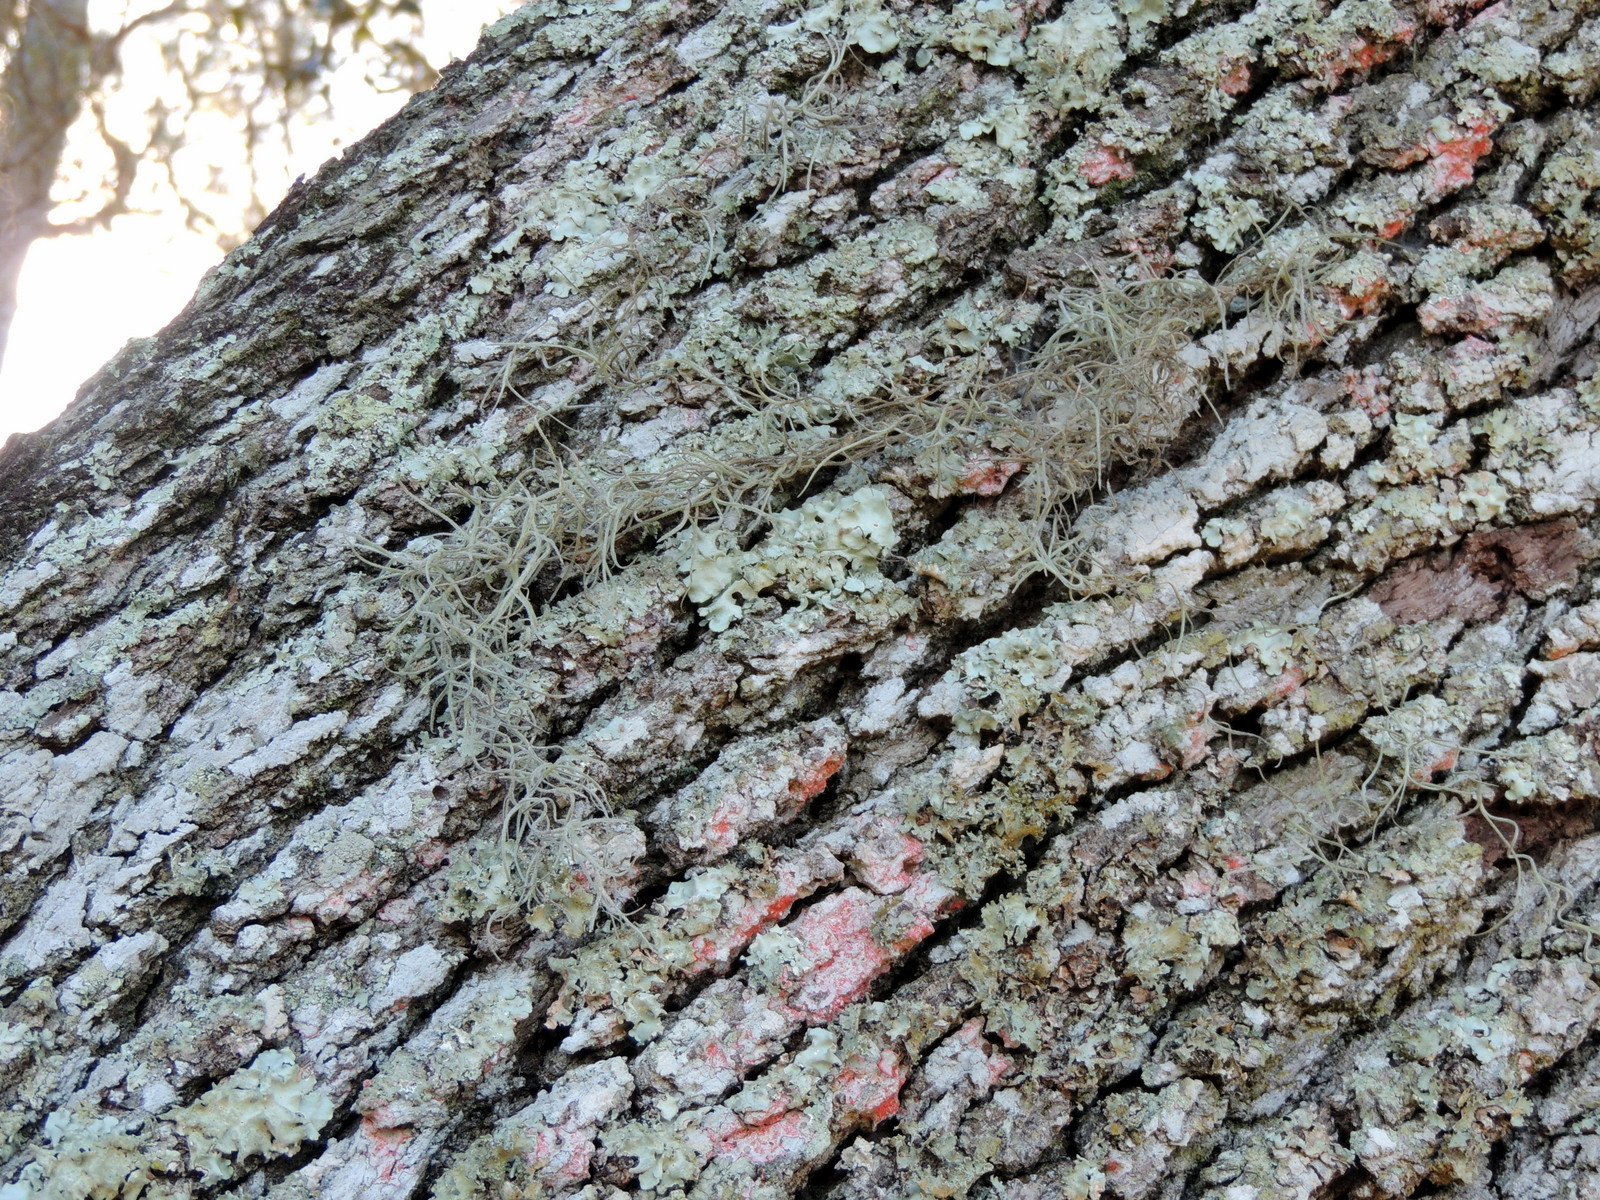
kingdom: Plantae
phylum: Tracheophyta
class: Liliopsida
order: Poales
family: Bromeliaceae
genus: Tillandsia
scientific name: Tillandsia usneoides
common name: Spanish moss
